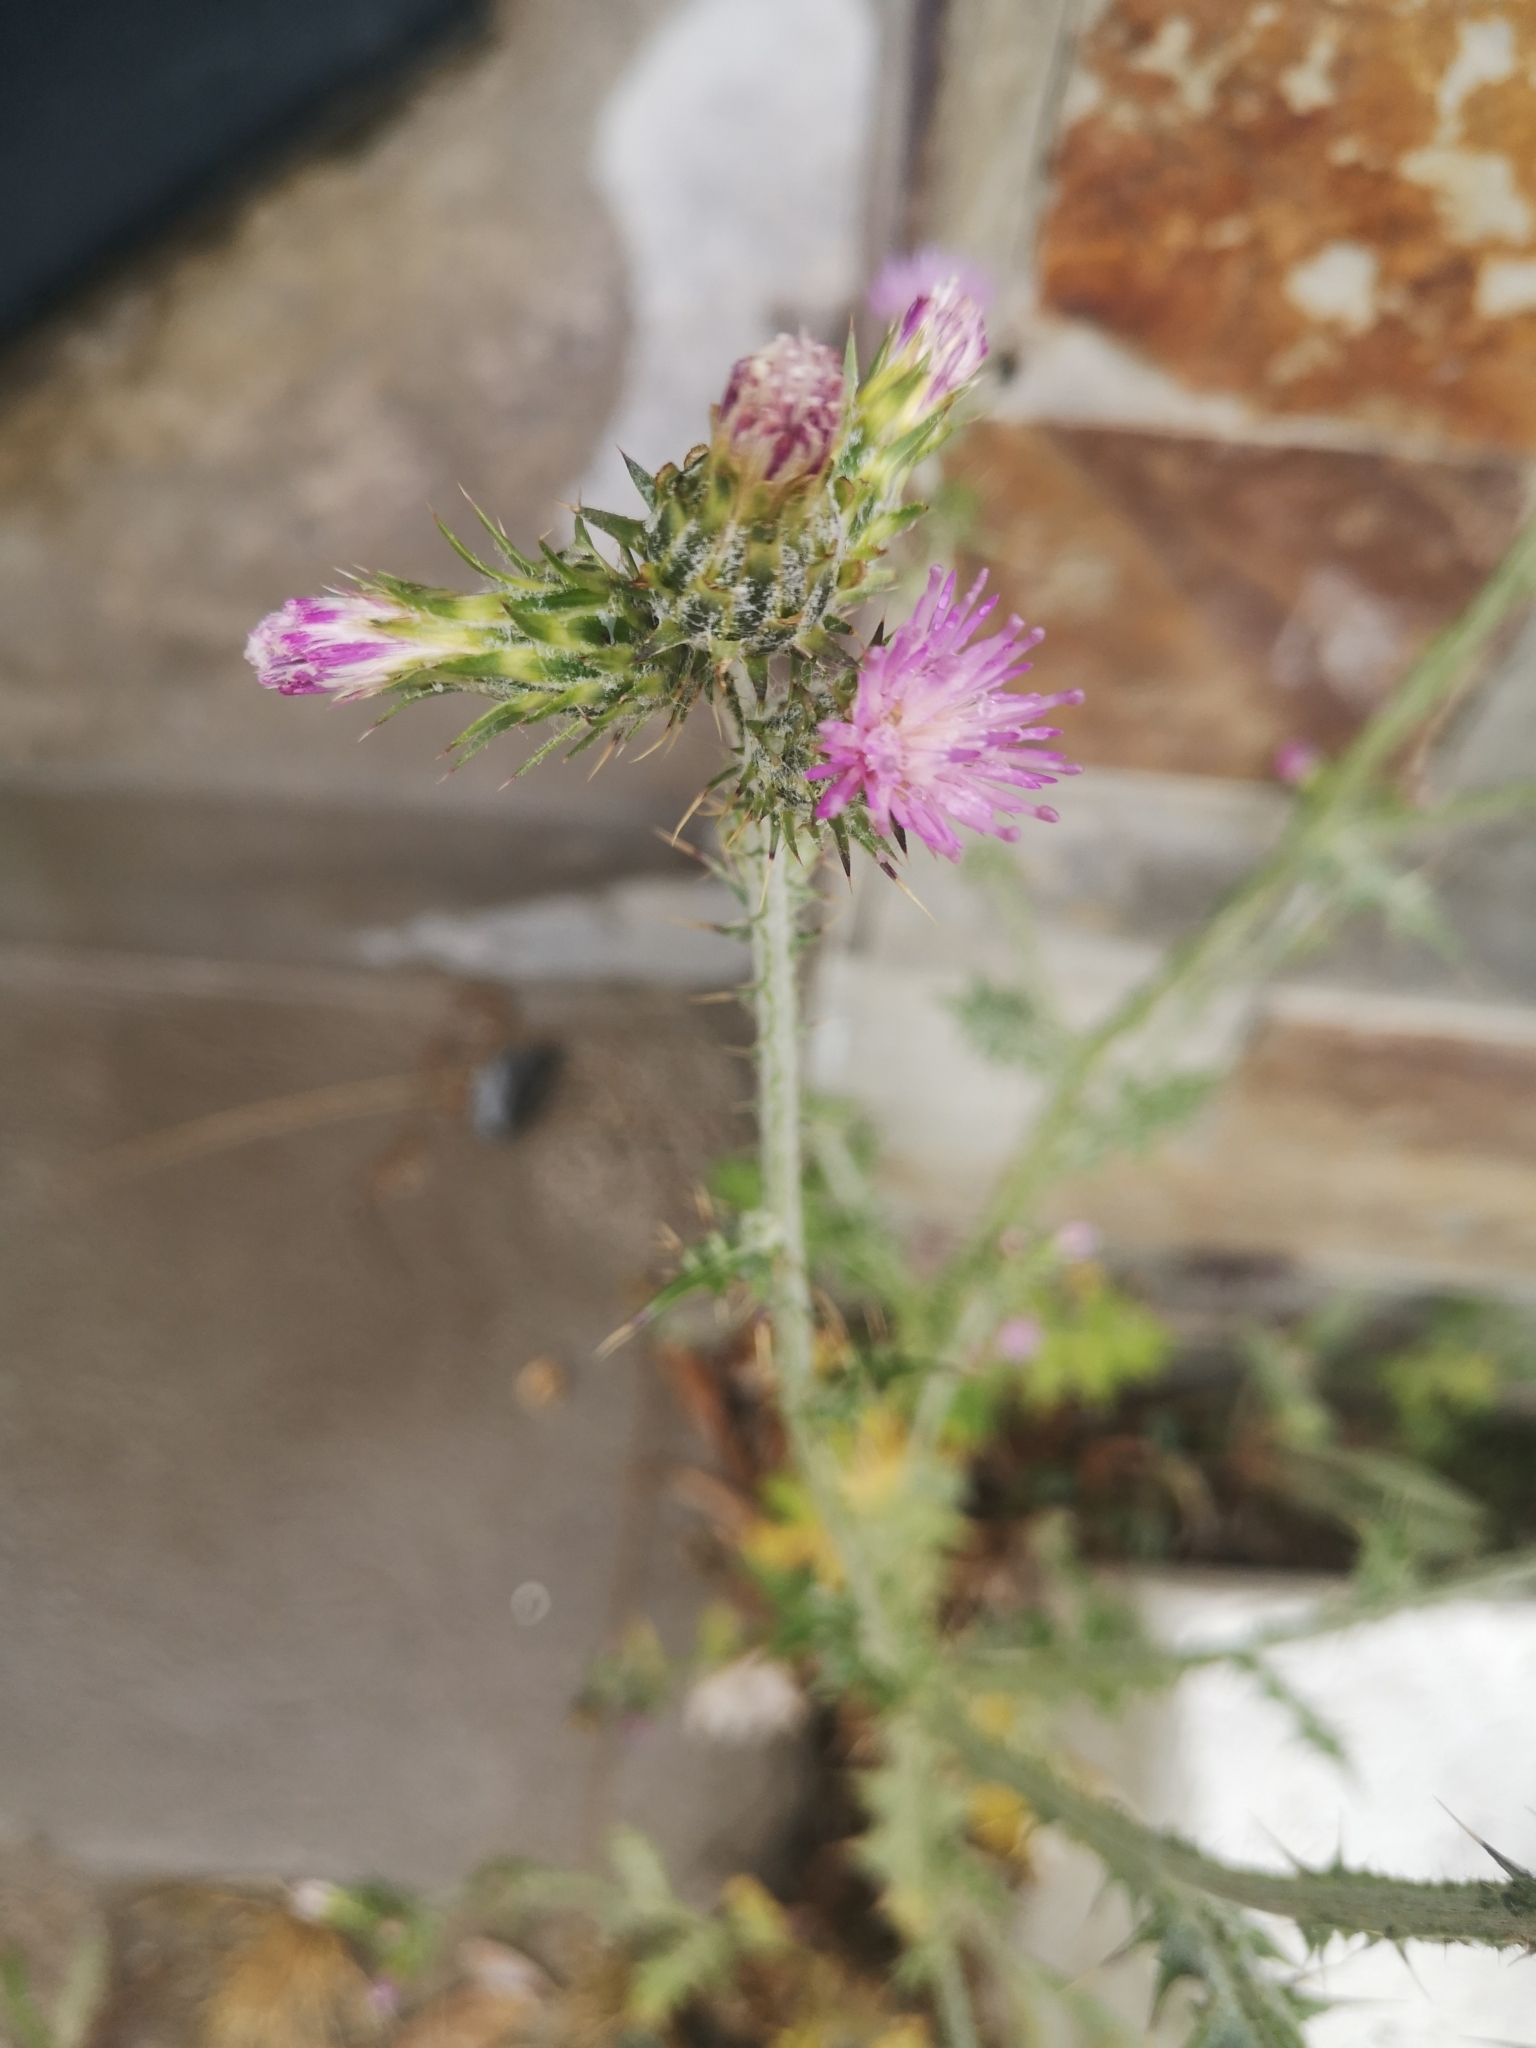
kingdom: Plantae
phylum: Tracheophyta
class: Magnoliopsida
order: Asterales
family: Asteraceae
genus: Carduus
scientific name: Carduus pycnocephalus
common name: Plymouth thistle
